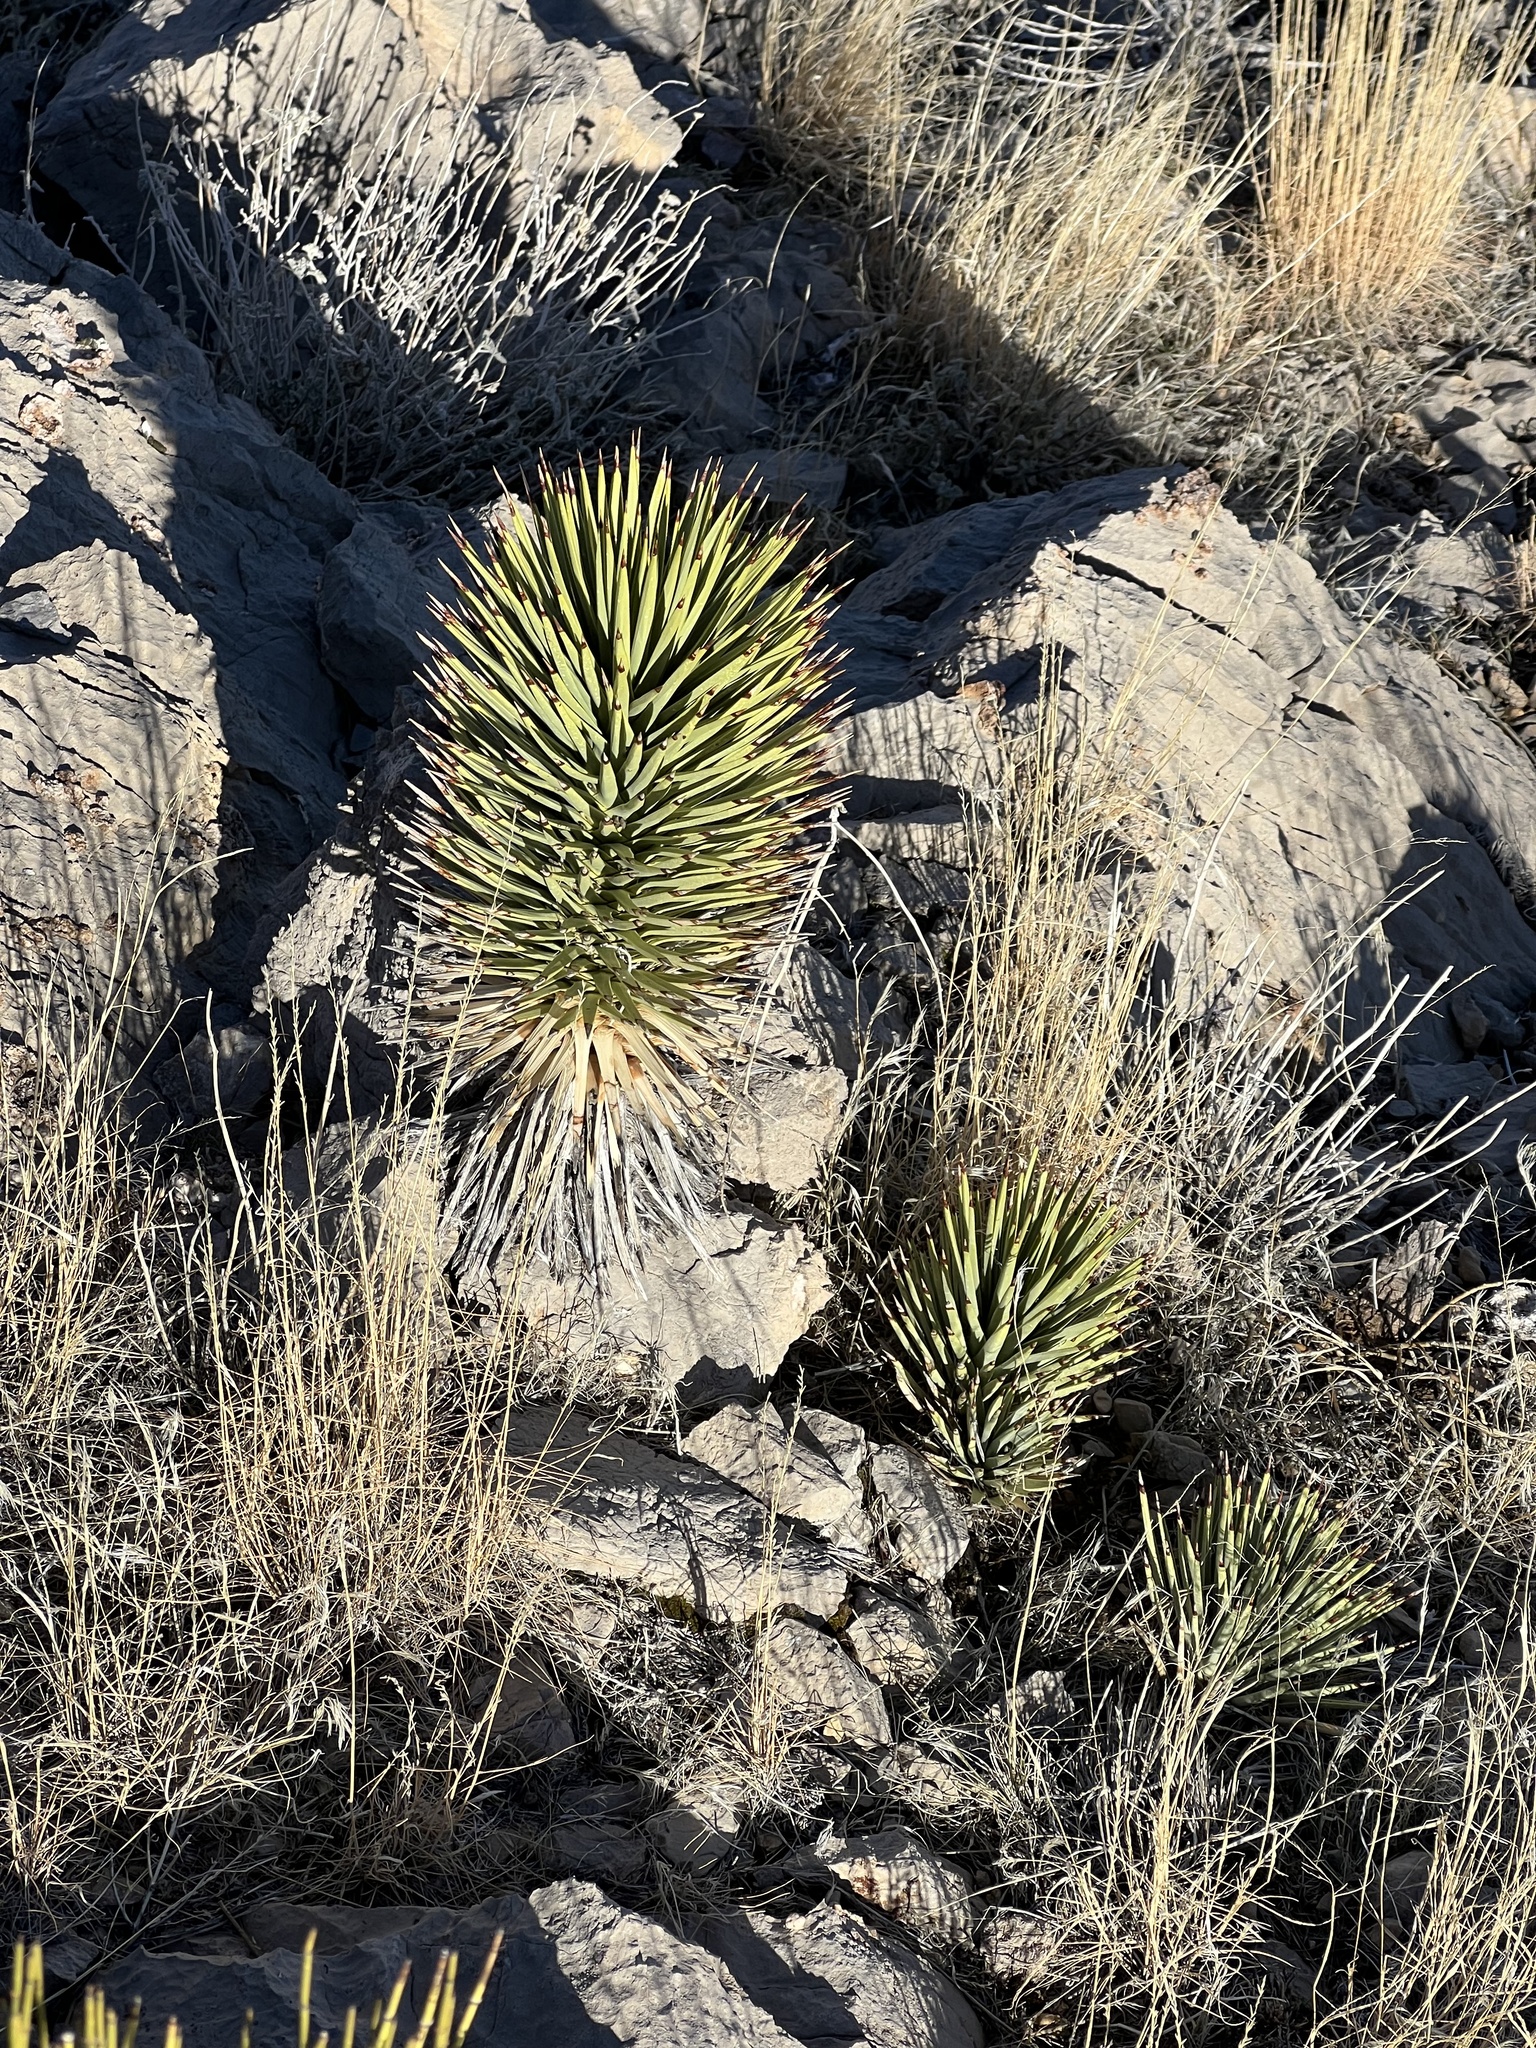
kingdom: Plantae
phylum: Tracheophyta
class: Liliopsida
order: Asparagales
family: Asparagaceae
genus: Yucca
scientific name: Yucca brevifolia
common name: Joshua tree
